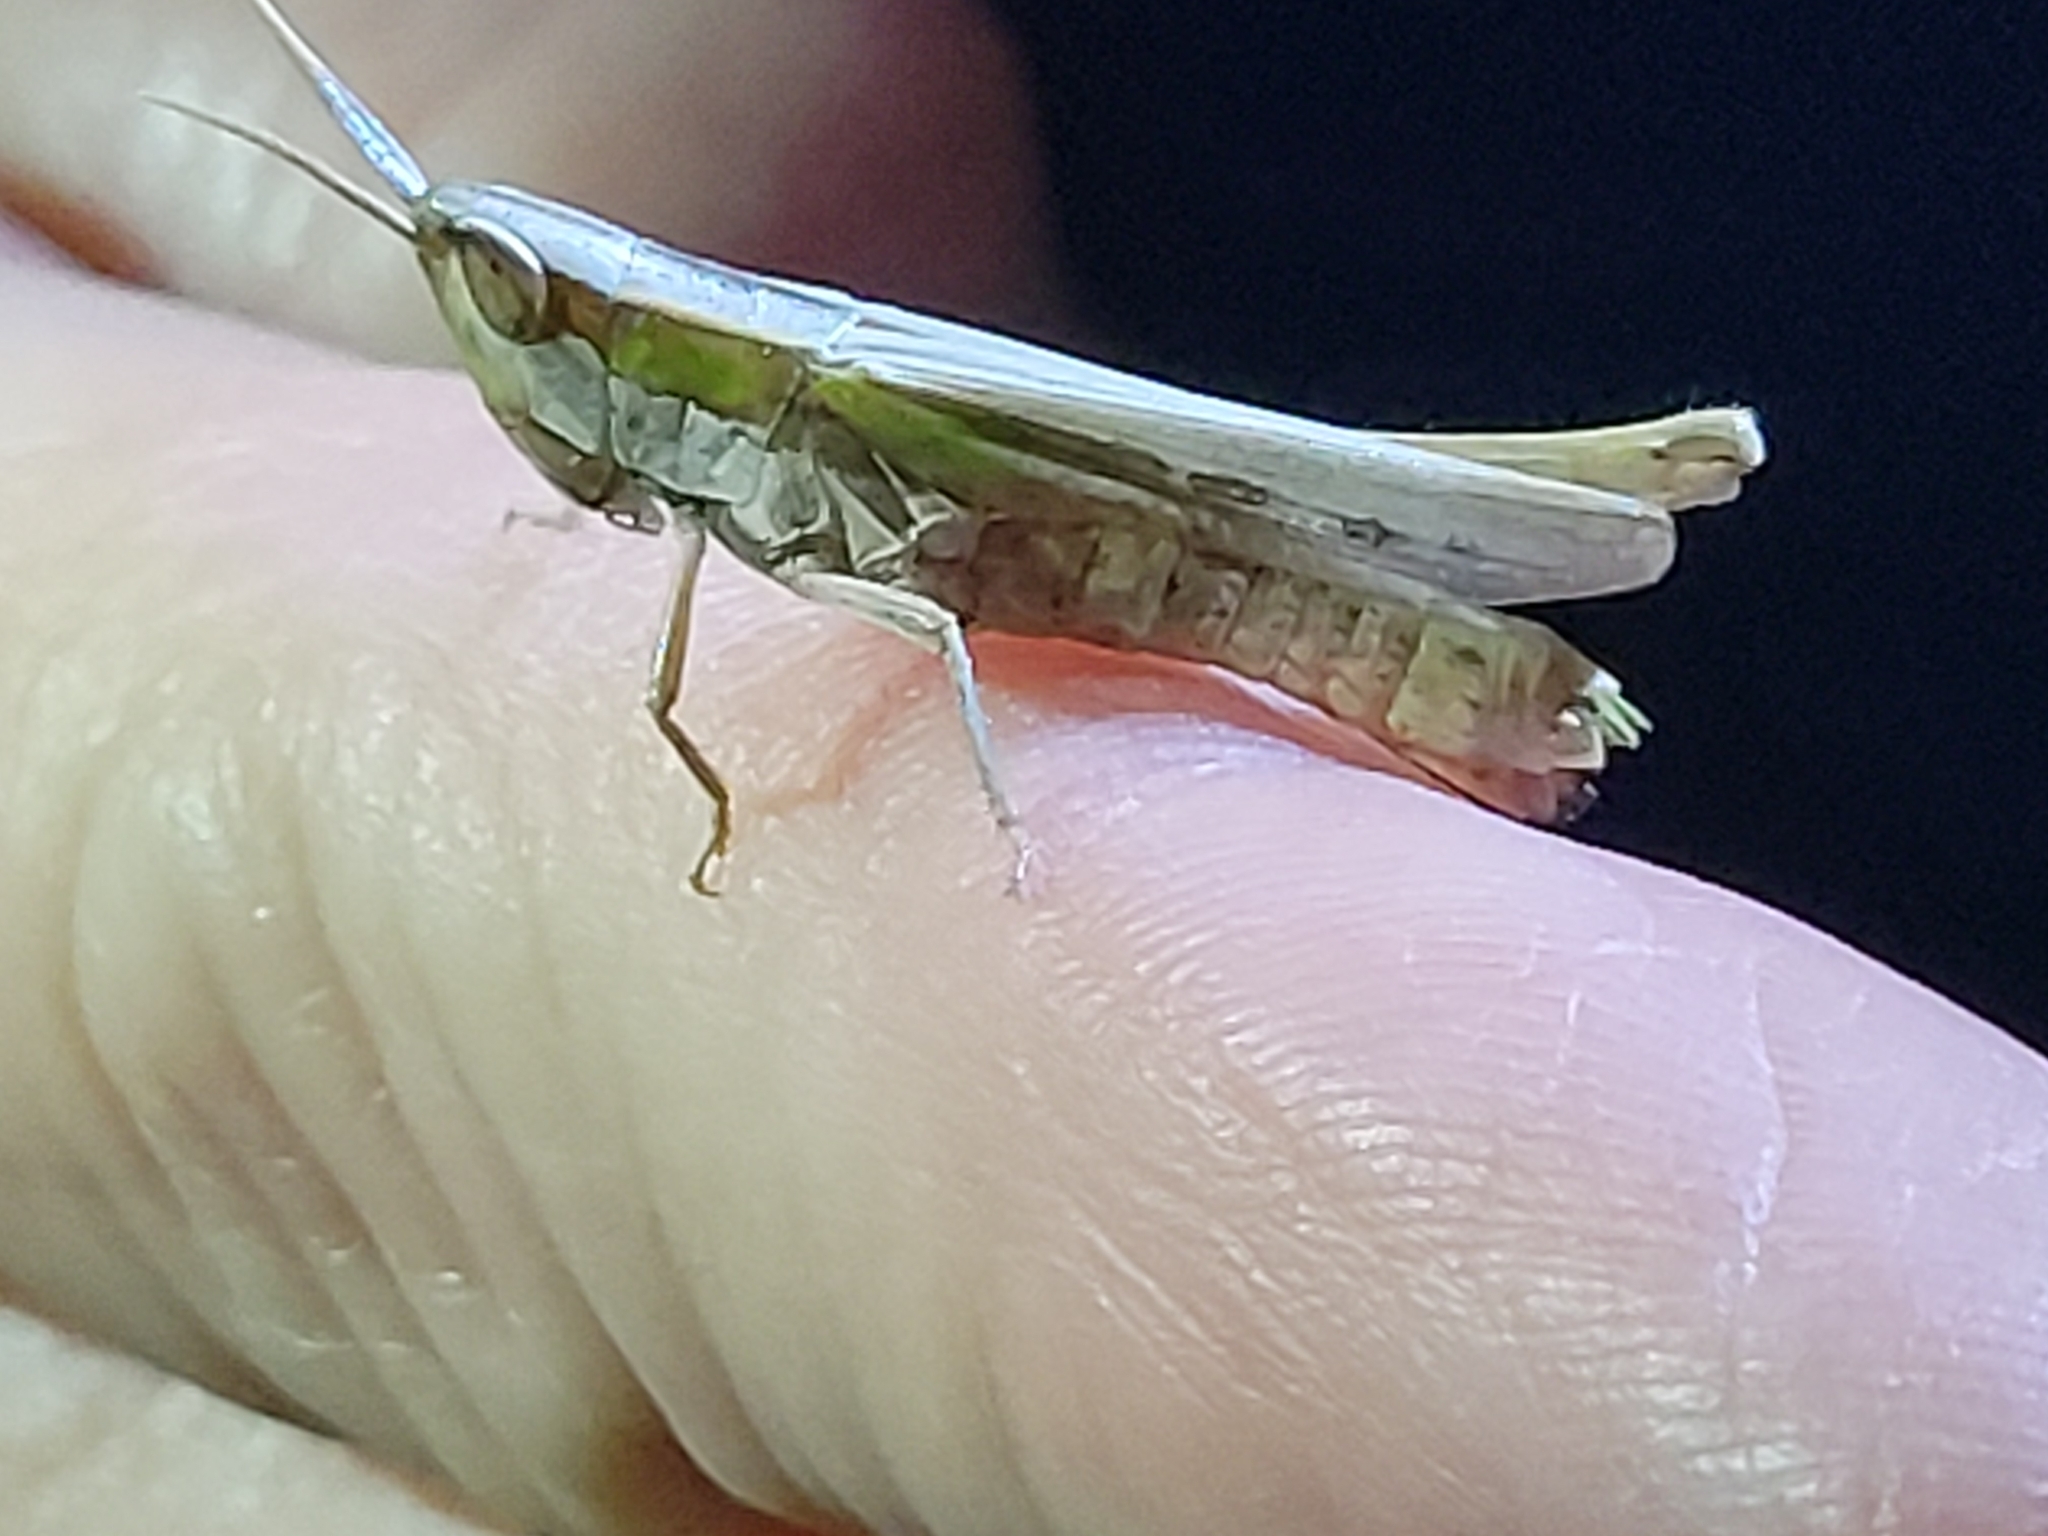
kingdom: Animalia
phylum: Arthropoda
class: Insecta
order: Orthoptera
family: Acrididae
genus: Opeia
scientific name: Opeia obscura
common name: Obscure grasshopper
